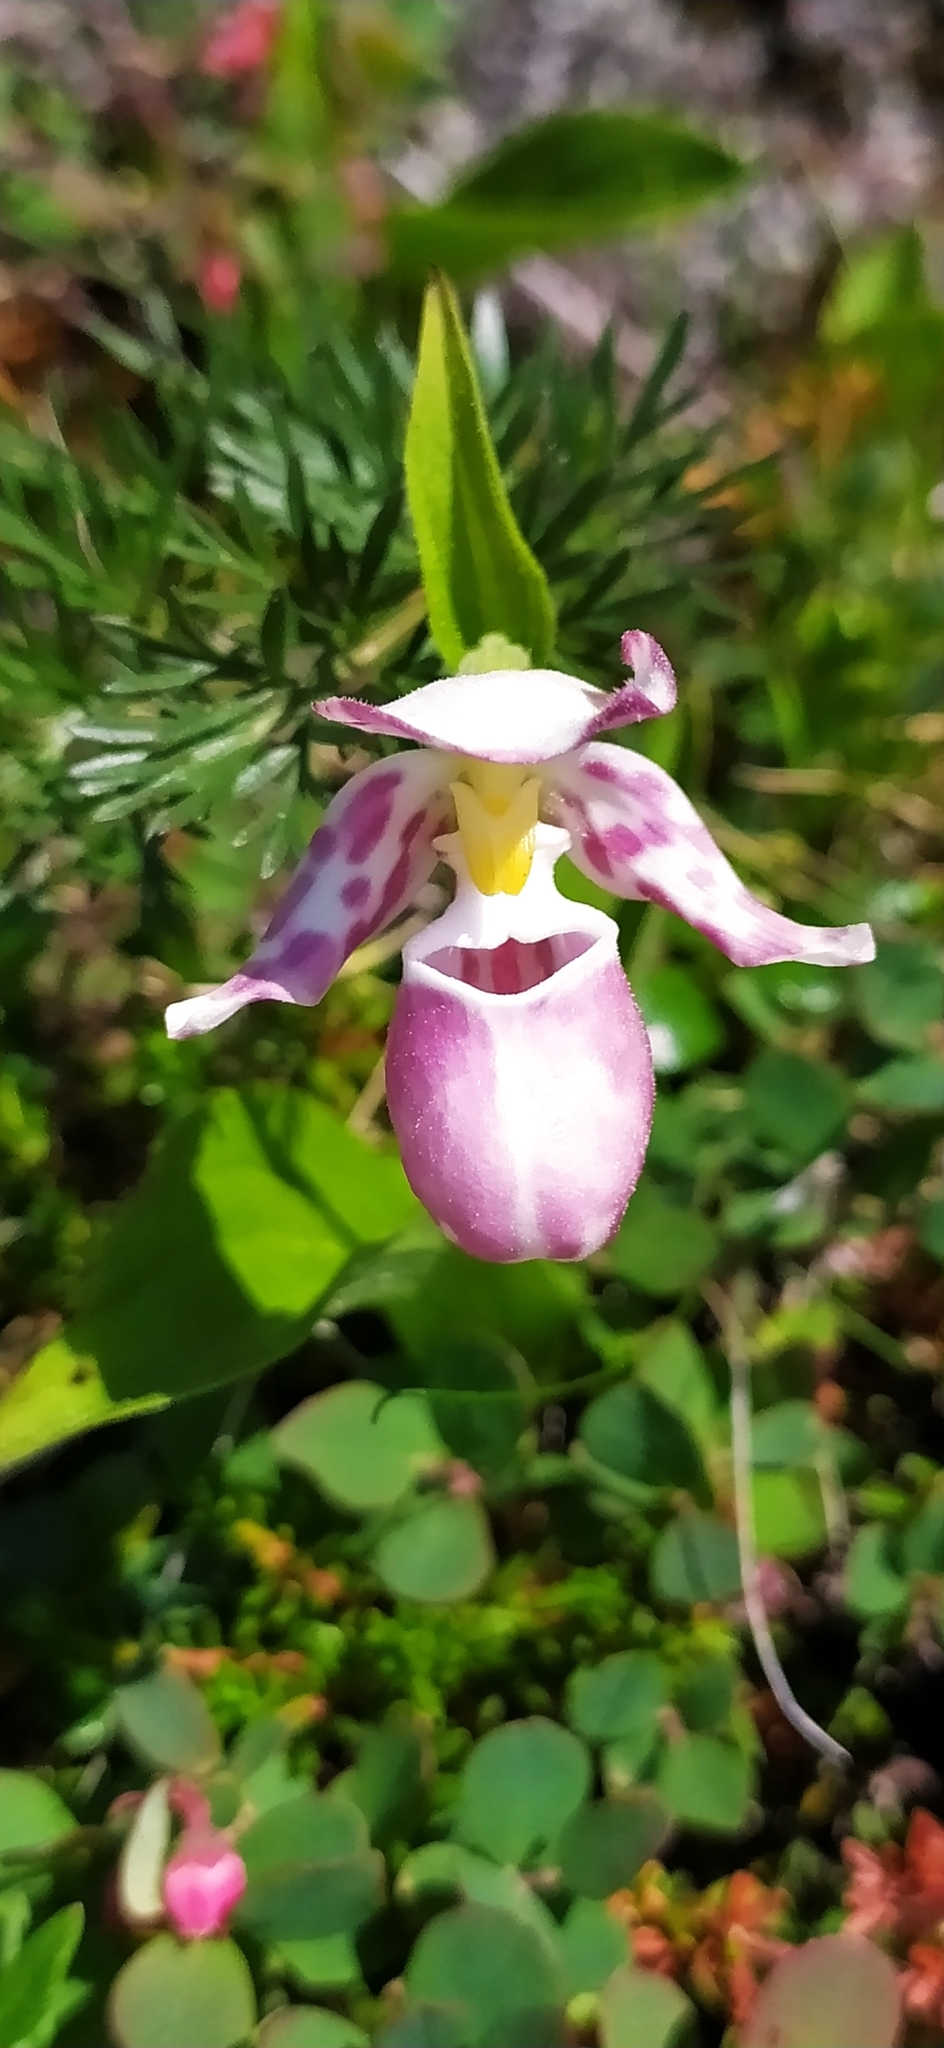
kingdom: Plantae
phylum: Tracheophyta
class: Liliopsida
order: Asparagales
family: Orchidaceae
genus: Cypripedium
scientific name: Cypripedium guttatum
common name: Pink lady slipper
